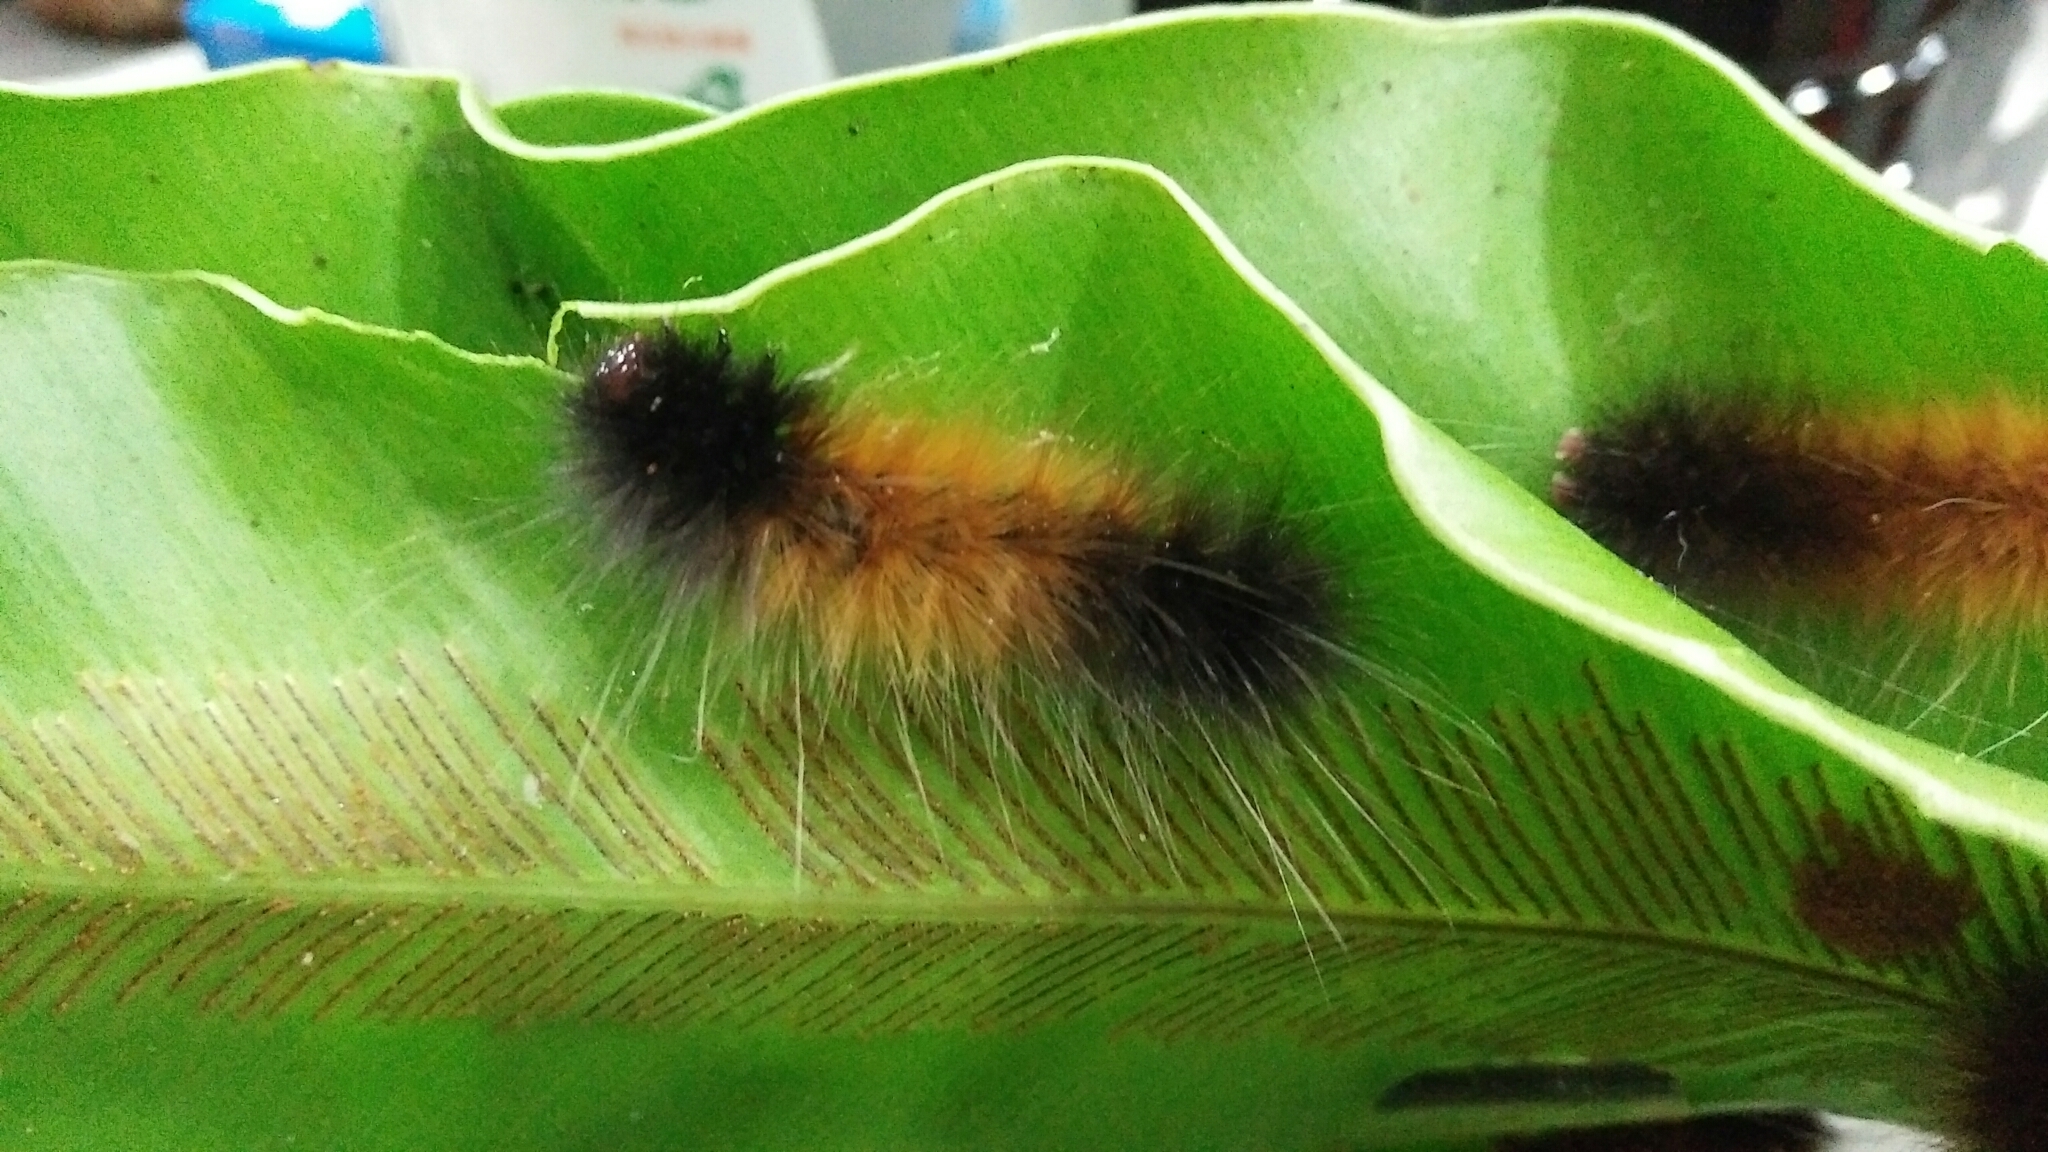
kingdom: Animalia
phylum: Arthropoda
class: Insecta
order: Lepidoptera
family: Erebidae
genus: Spilarctia
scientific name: Spilarctia postrubida
